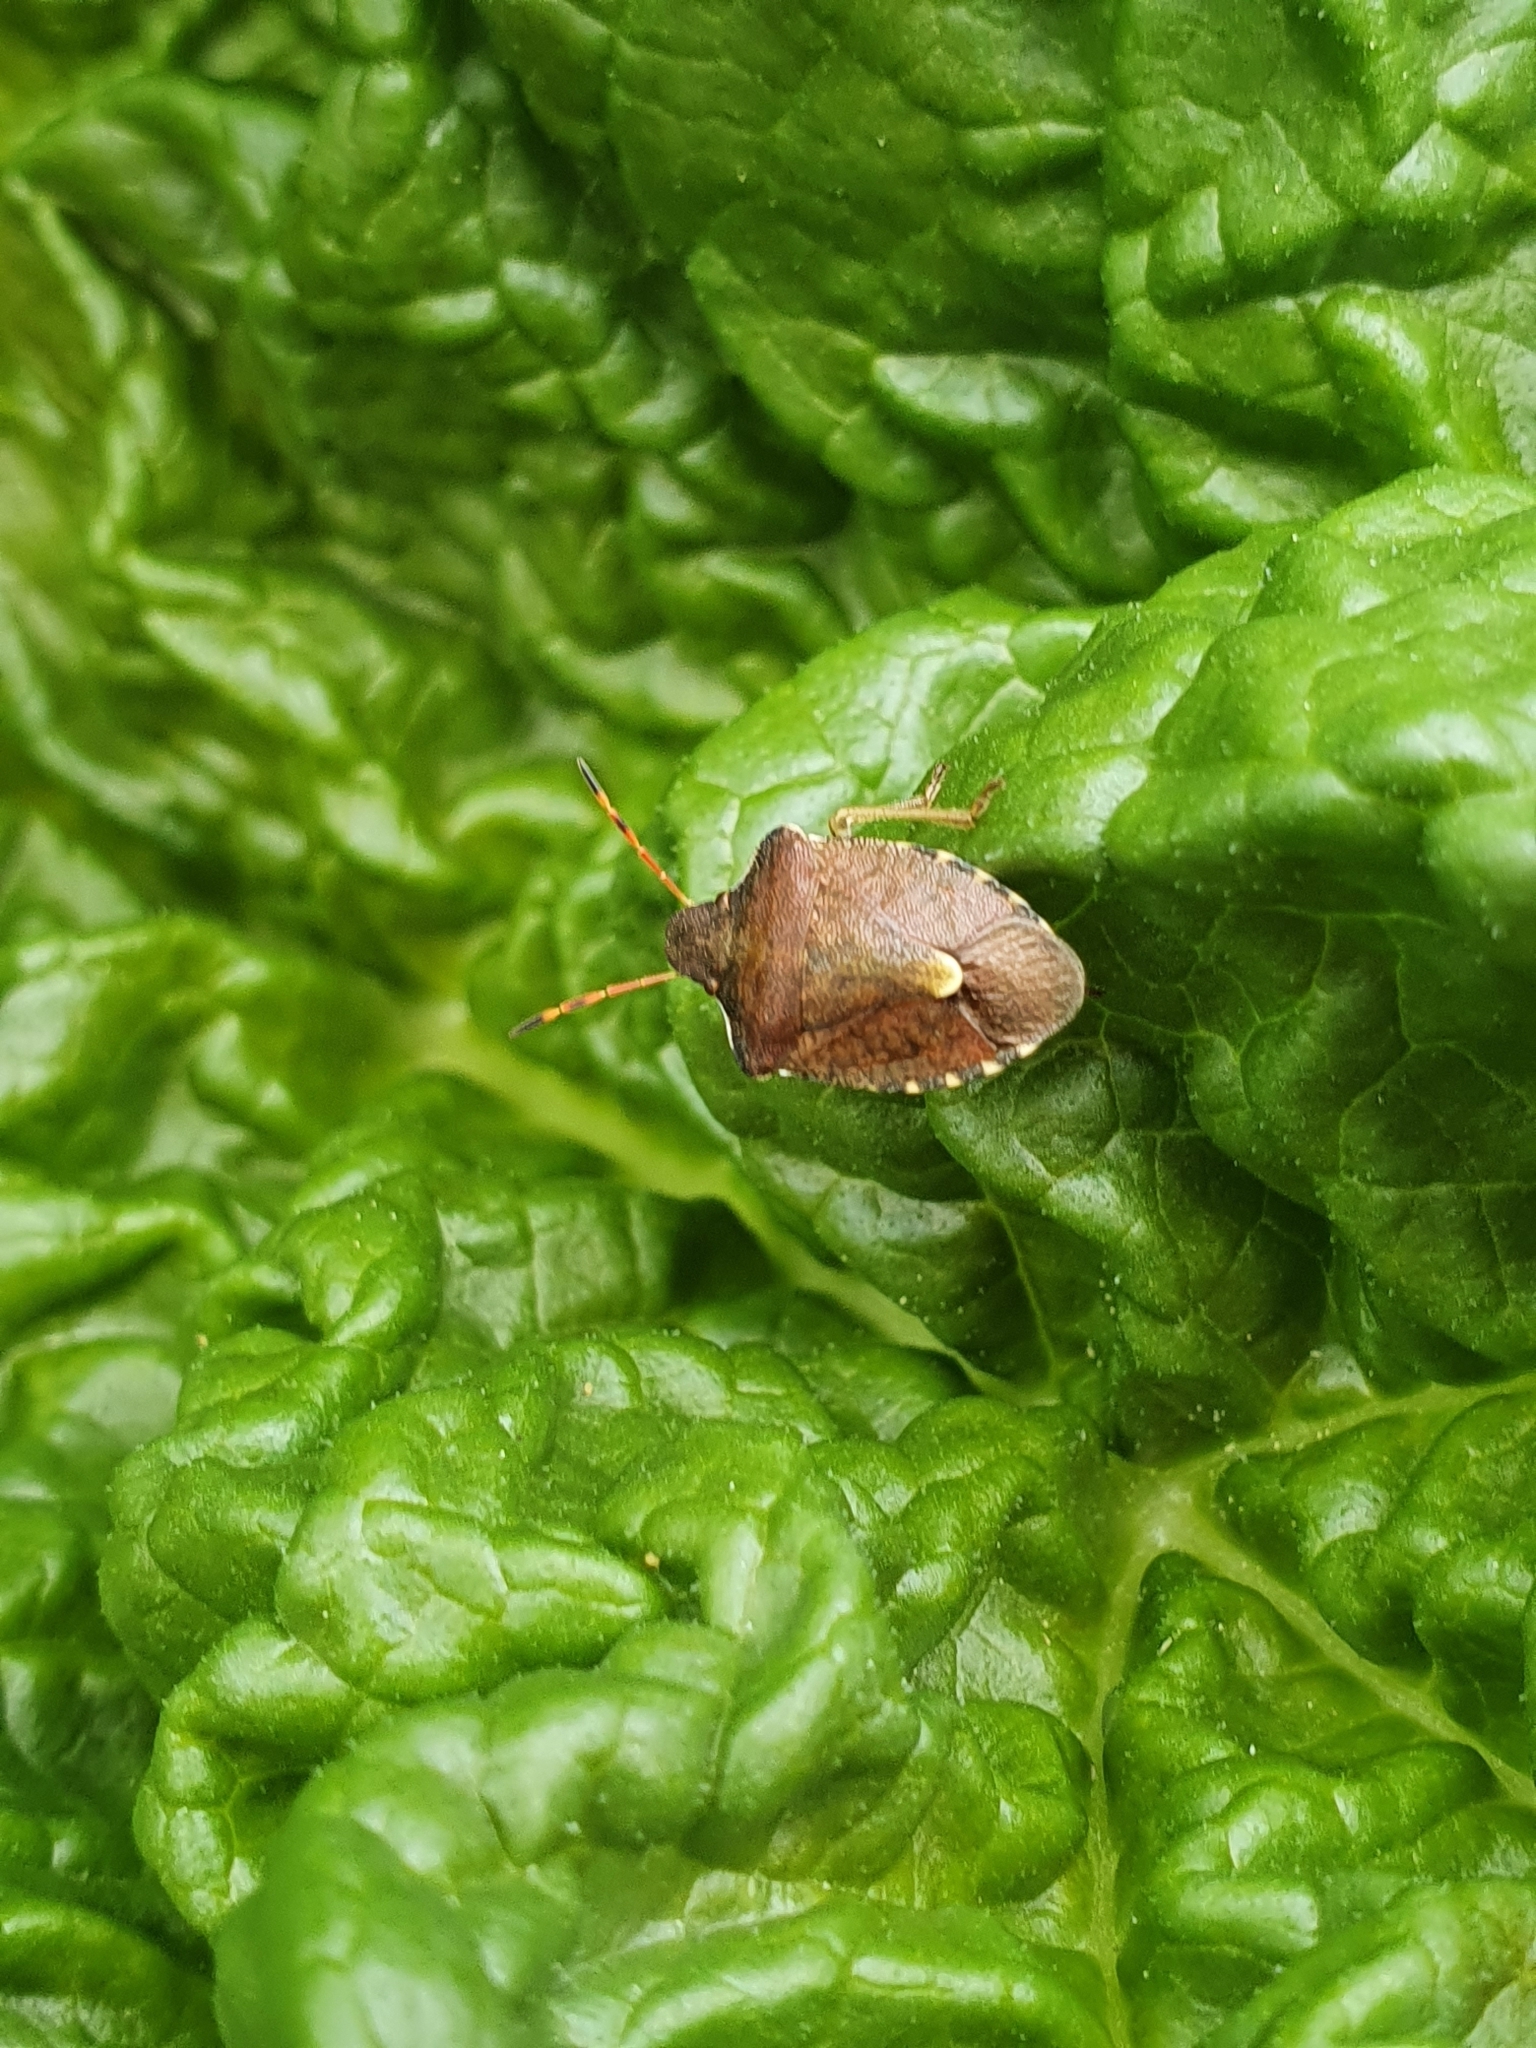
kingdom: Animalia
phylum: Arthropoda
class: Insecta
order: Hemiptera
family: Pentatomidae
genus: Holcostethus
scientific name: Holcostethus strictus
